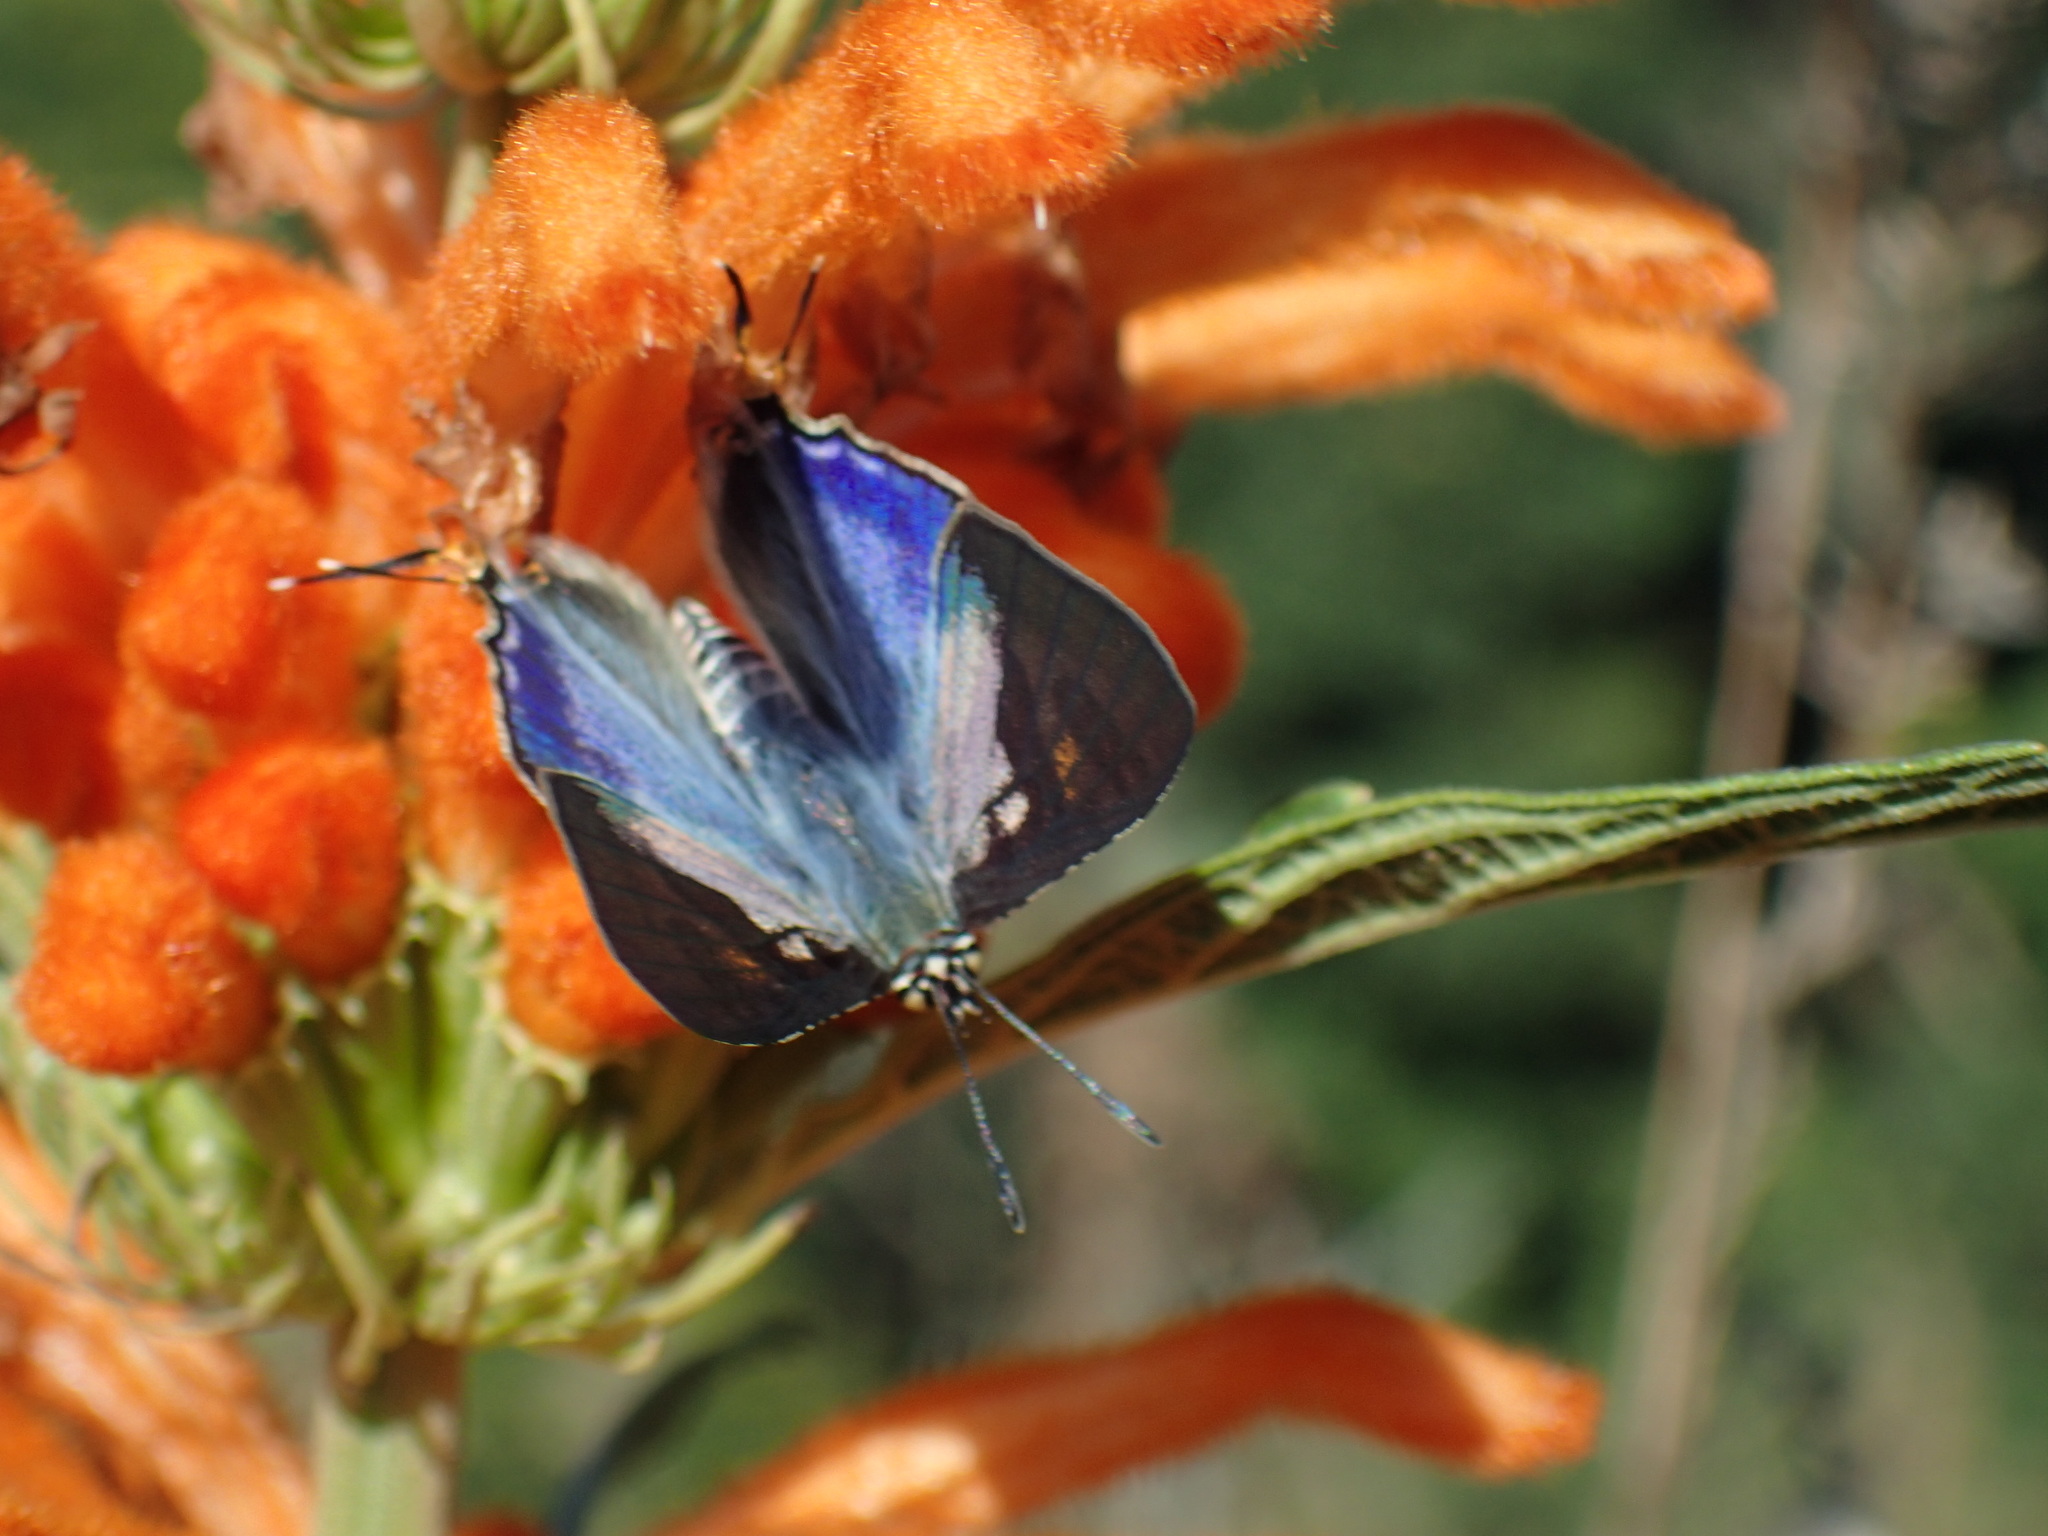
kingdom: Plantae
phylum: Tracheophyta
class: Magnoliopsida
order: Lamiales
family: Lamiaceae
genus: Leonotis
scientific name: Leonotis leonurus
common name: Lion's ear
